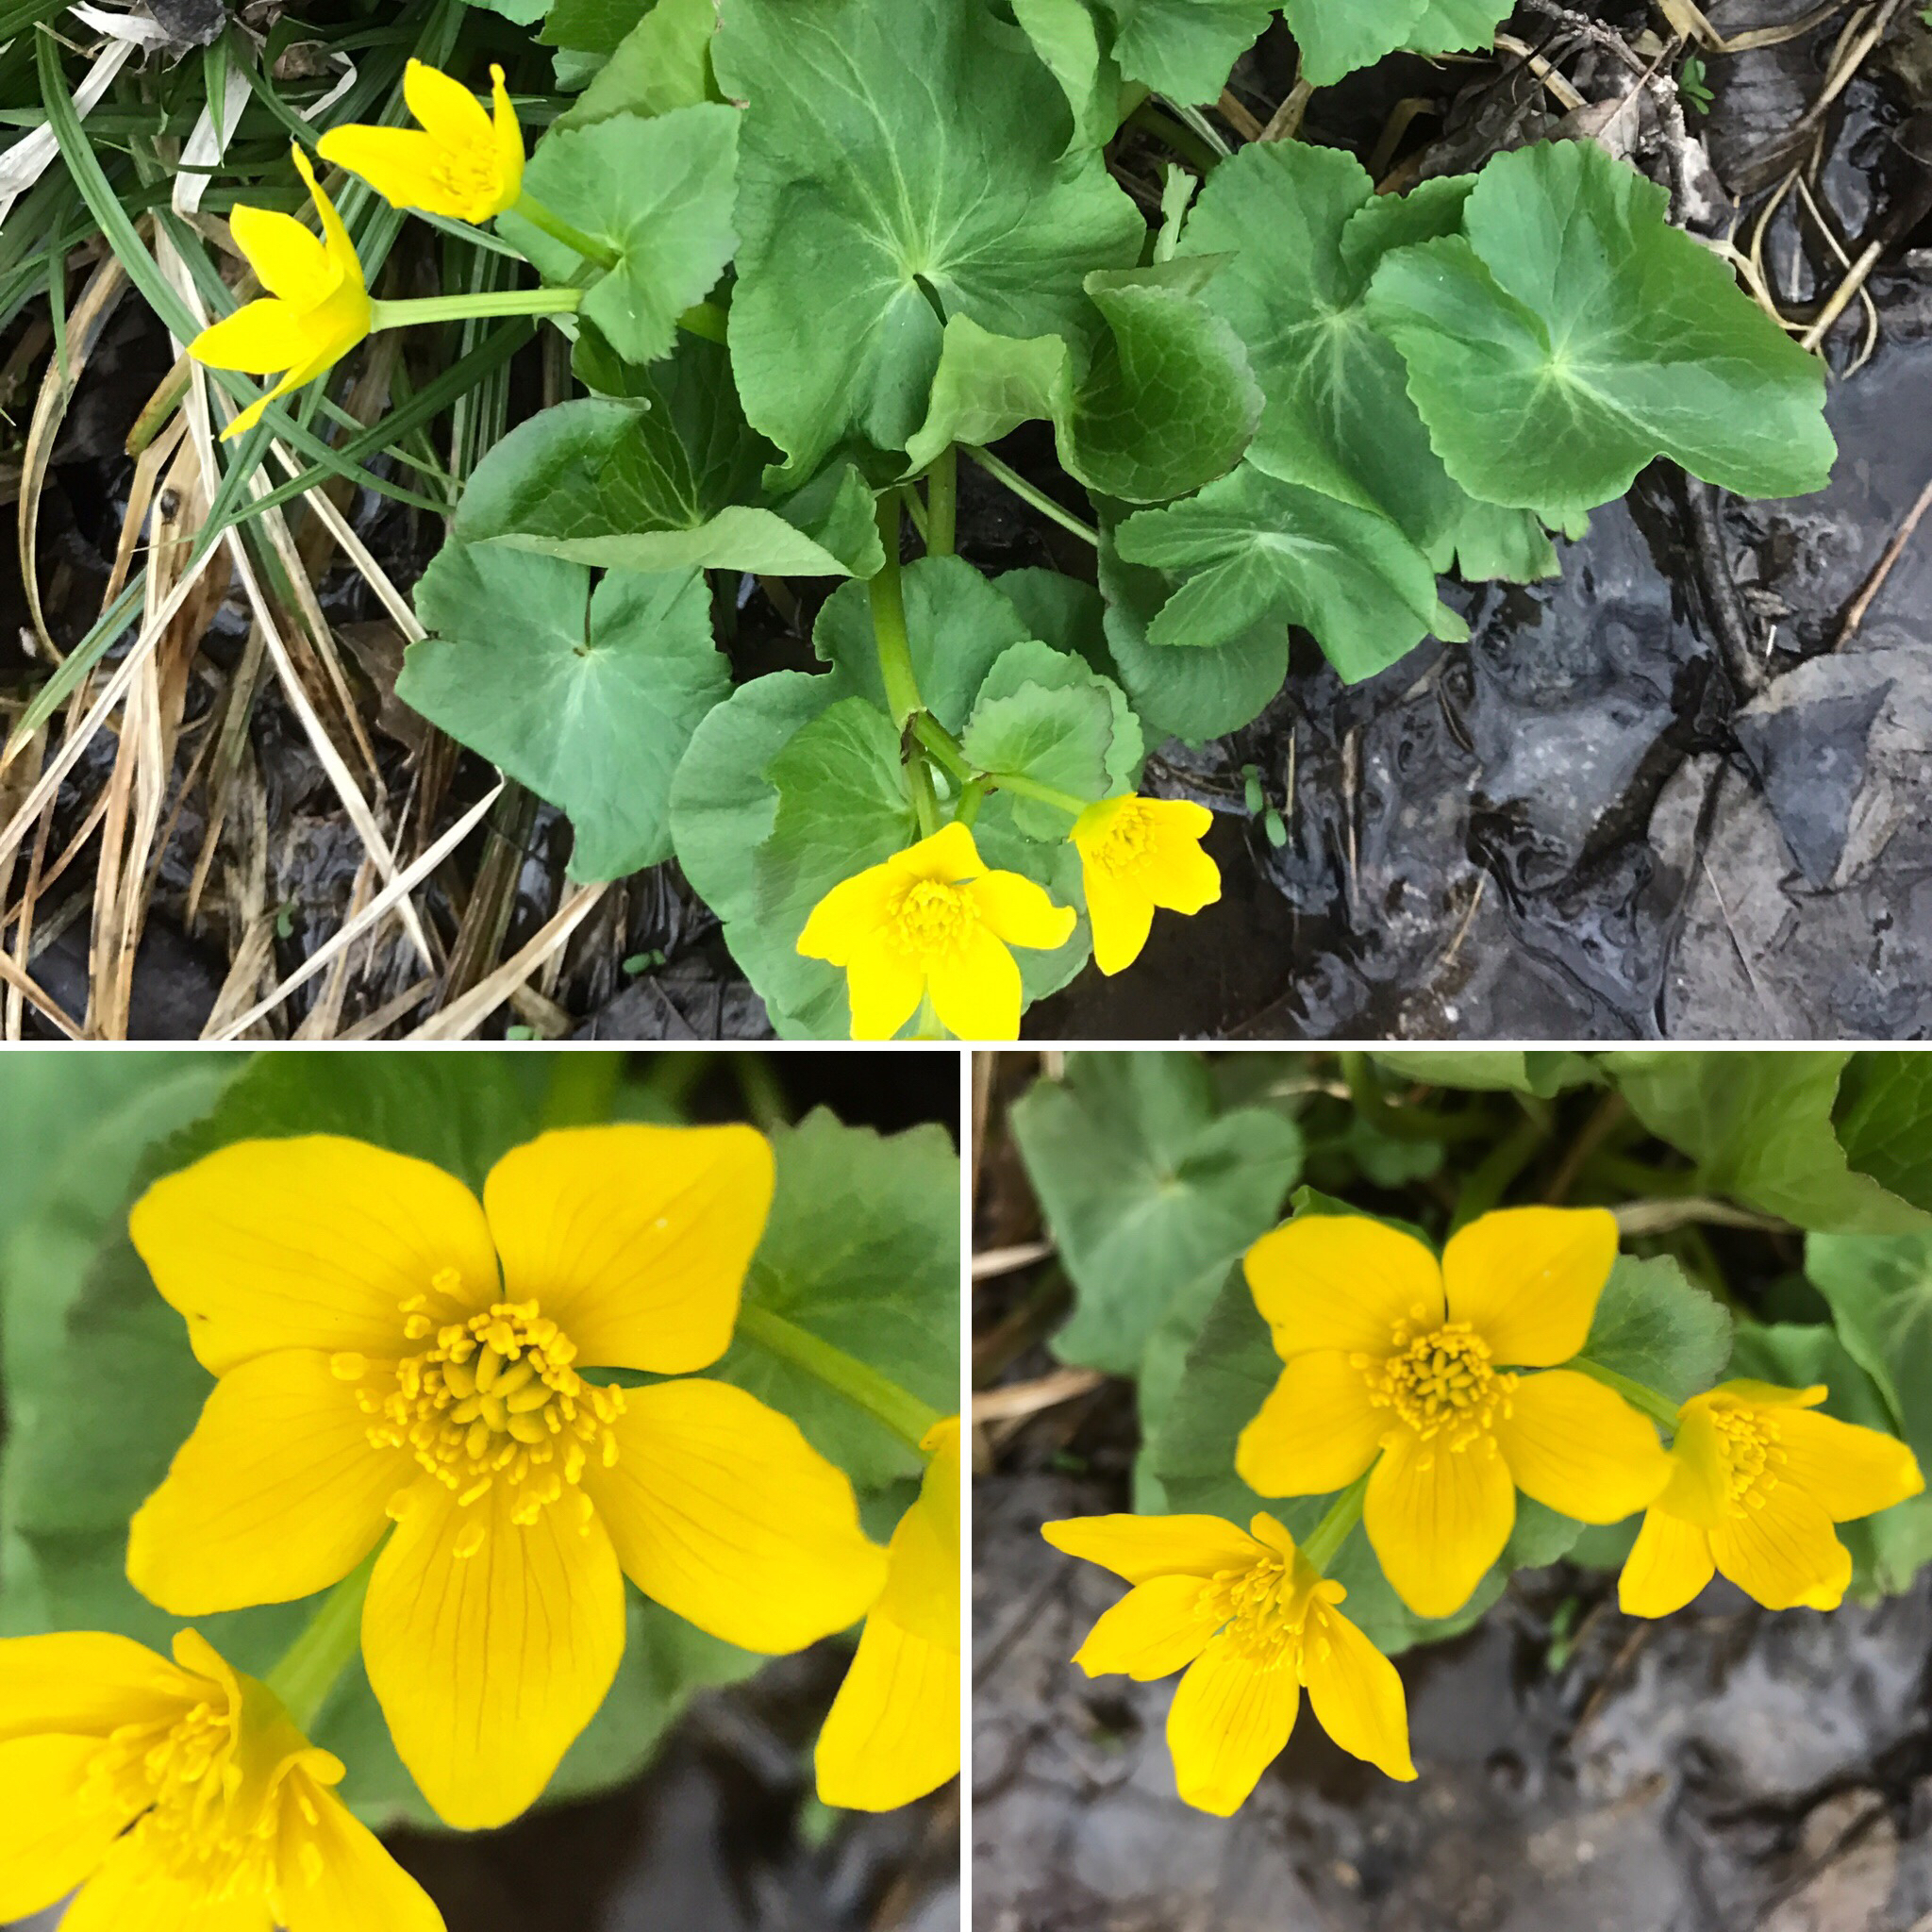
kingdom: Plantae
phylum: Tracheophyta
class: Magnoliopsida
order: Ranunculales
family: Ranunculaceae
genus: Caltha
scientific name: Caltha palustris
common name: Marsh marigold
